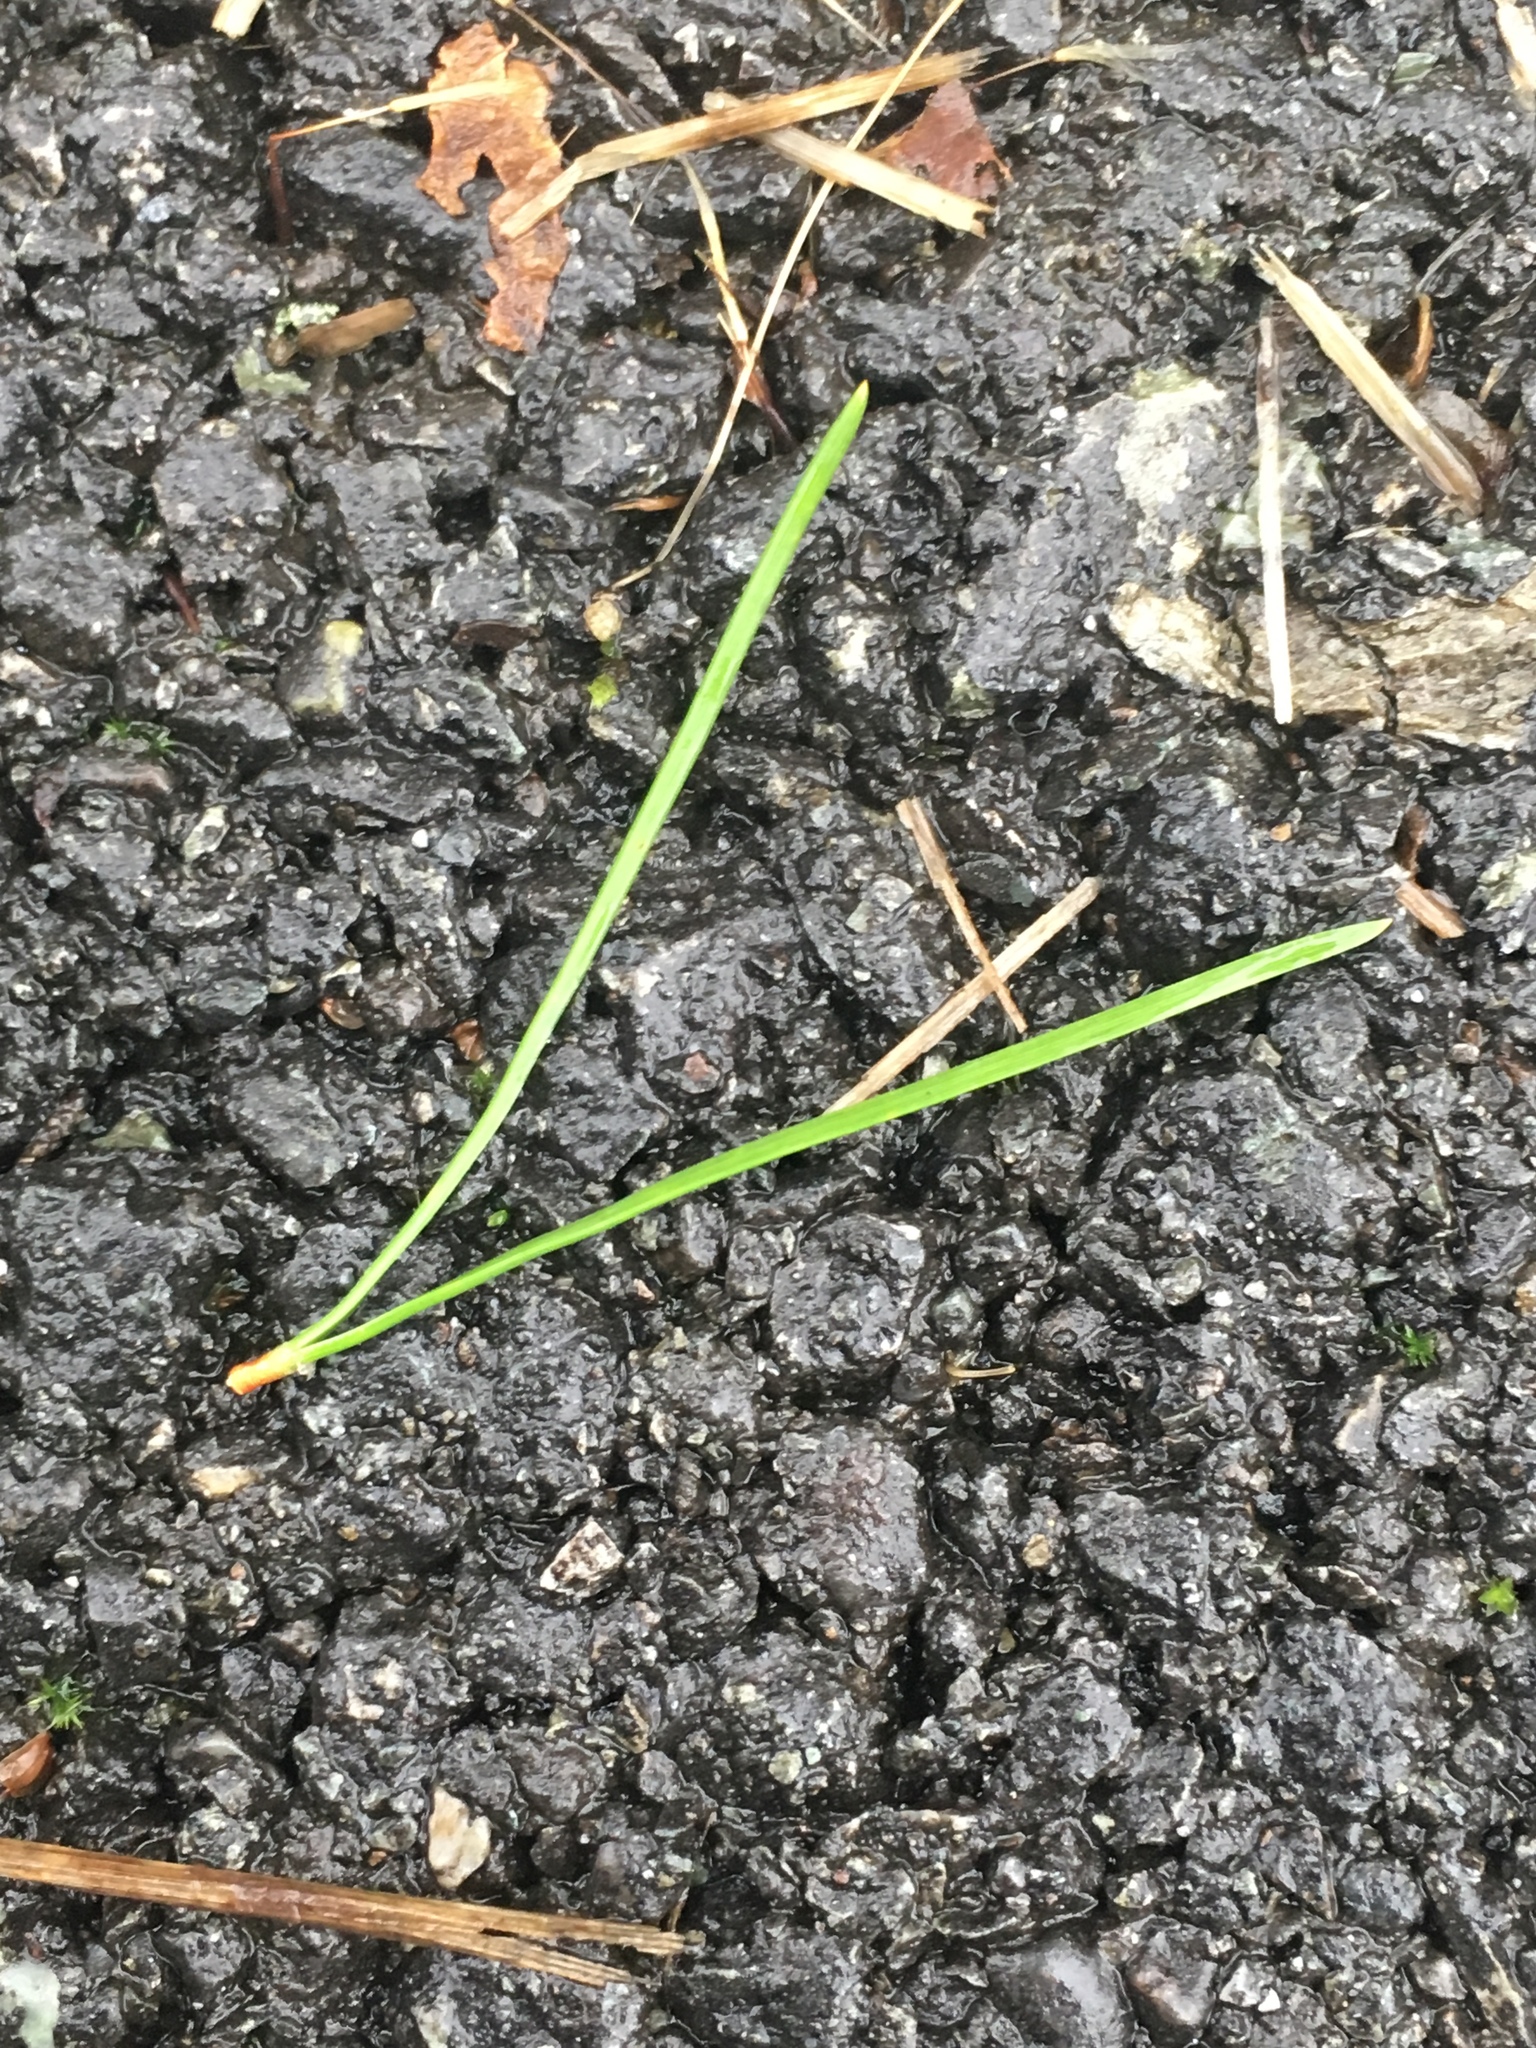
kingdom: Plantae
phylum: Tracheophyta
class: Pinopsida
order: Pinales
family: Pinaceae
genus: Pinus
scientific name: Pinus contorta
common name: Lodgepole pine
